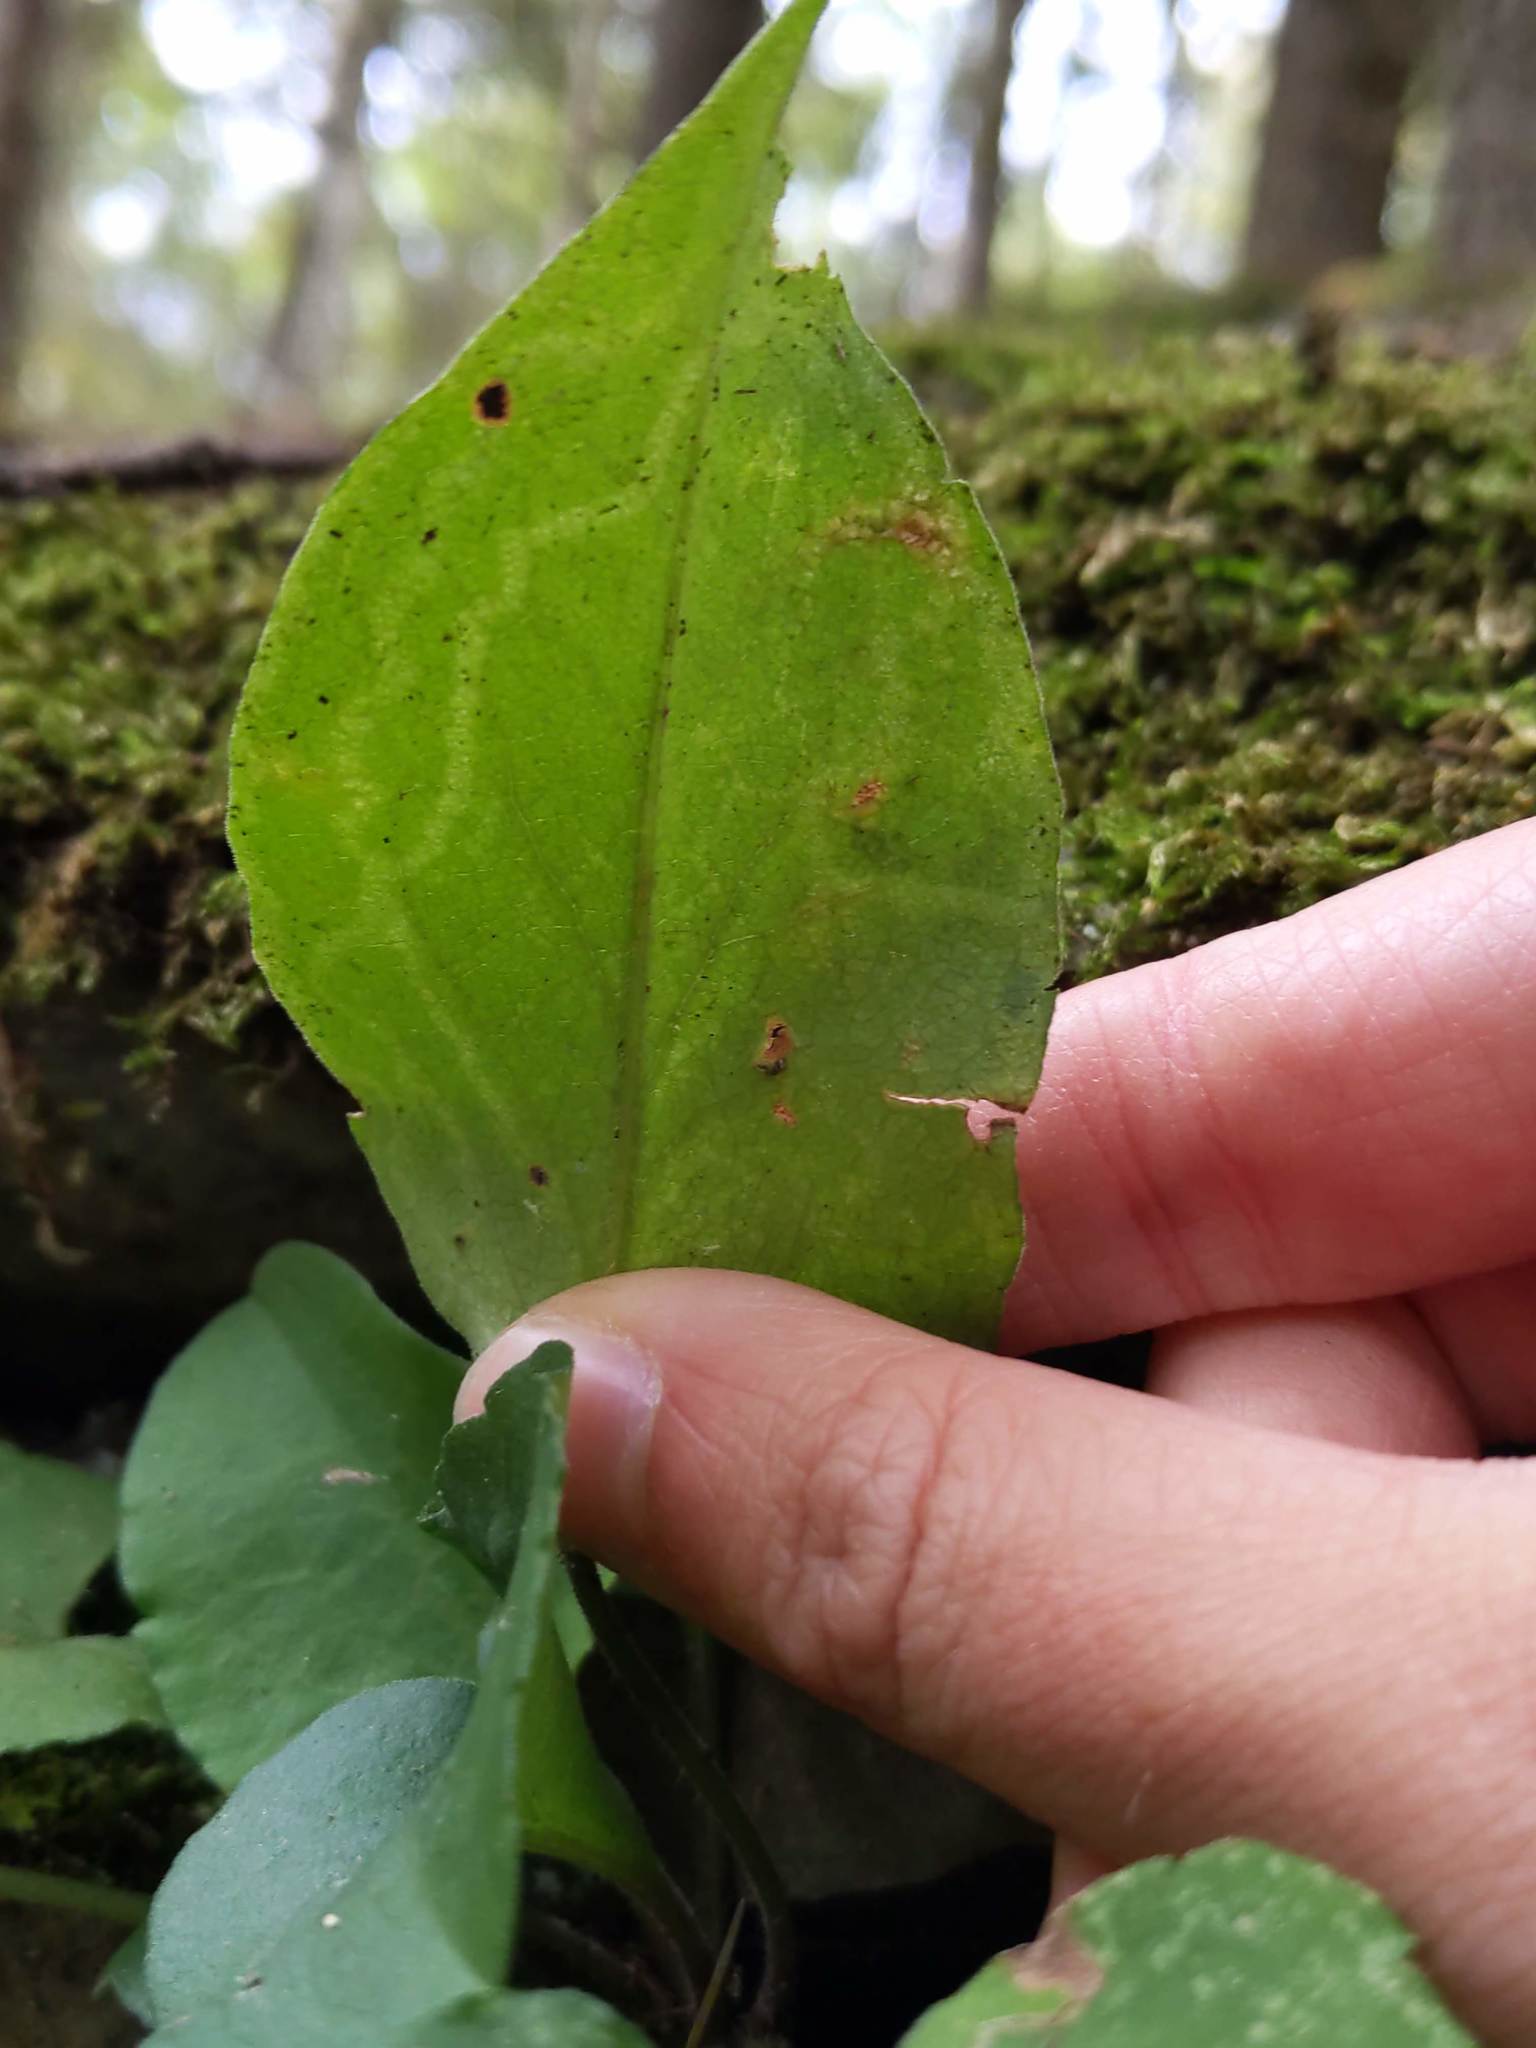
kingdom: Animalia
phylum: Arthropoda
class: Insecta
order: Diptera
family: Agromyzidae
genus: Ophiomyia
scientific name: Ophiomyia parda
